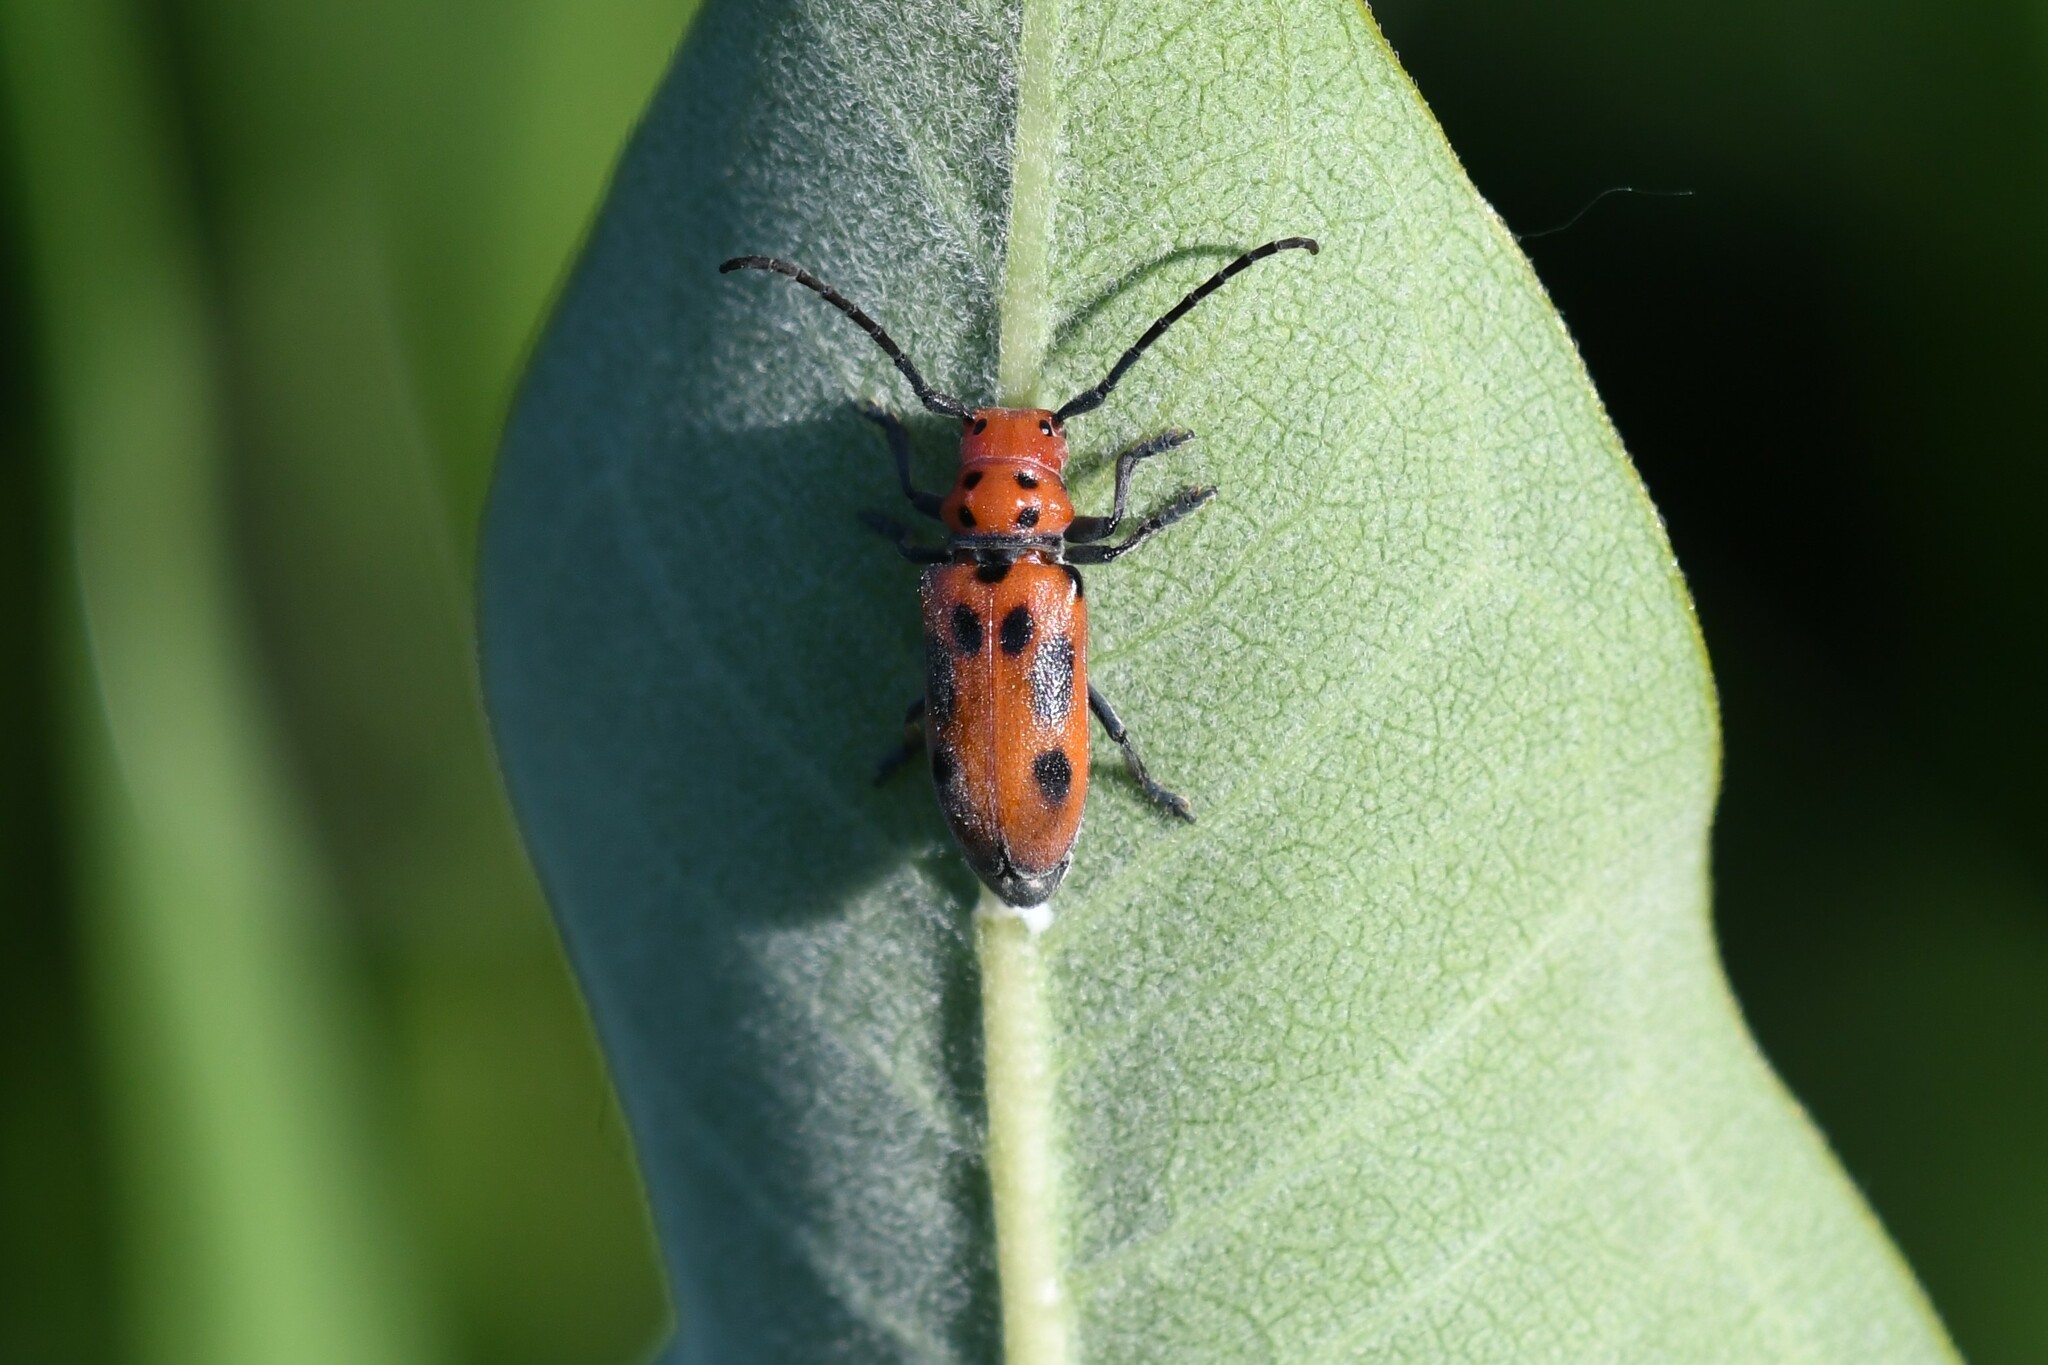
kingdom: Animalia
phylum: Arthropoda
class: Insecta
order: Coleoptera
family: Cerambycidae
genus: Tetraopes
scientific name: Tetraopes tetrophthalmus
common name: Red milkweed beetle
